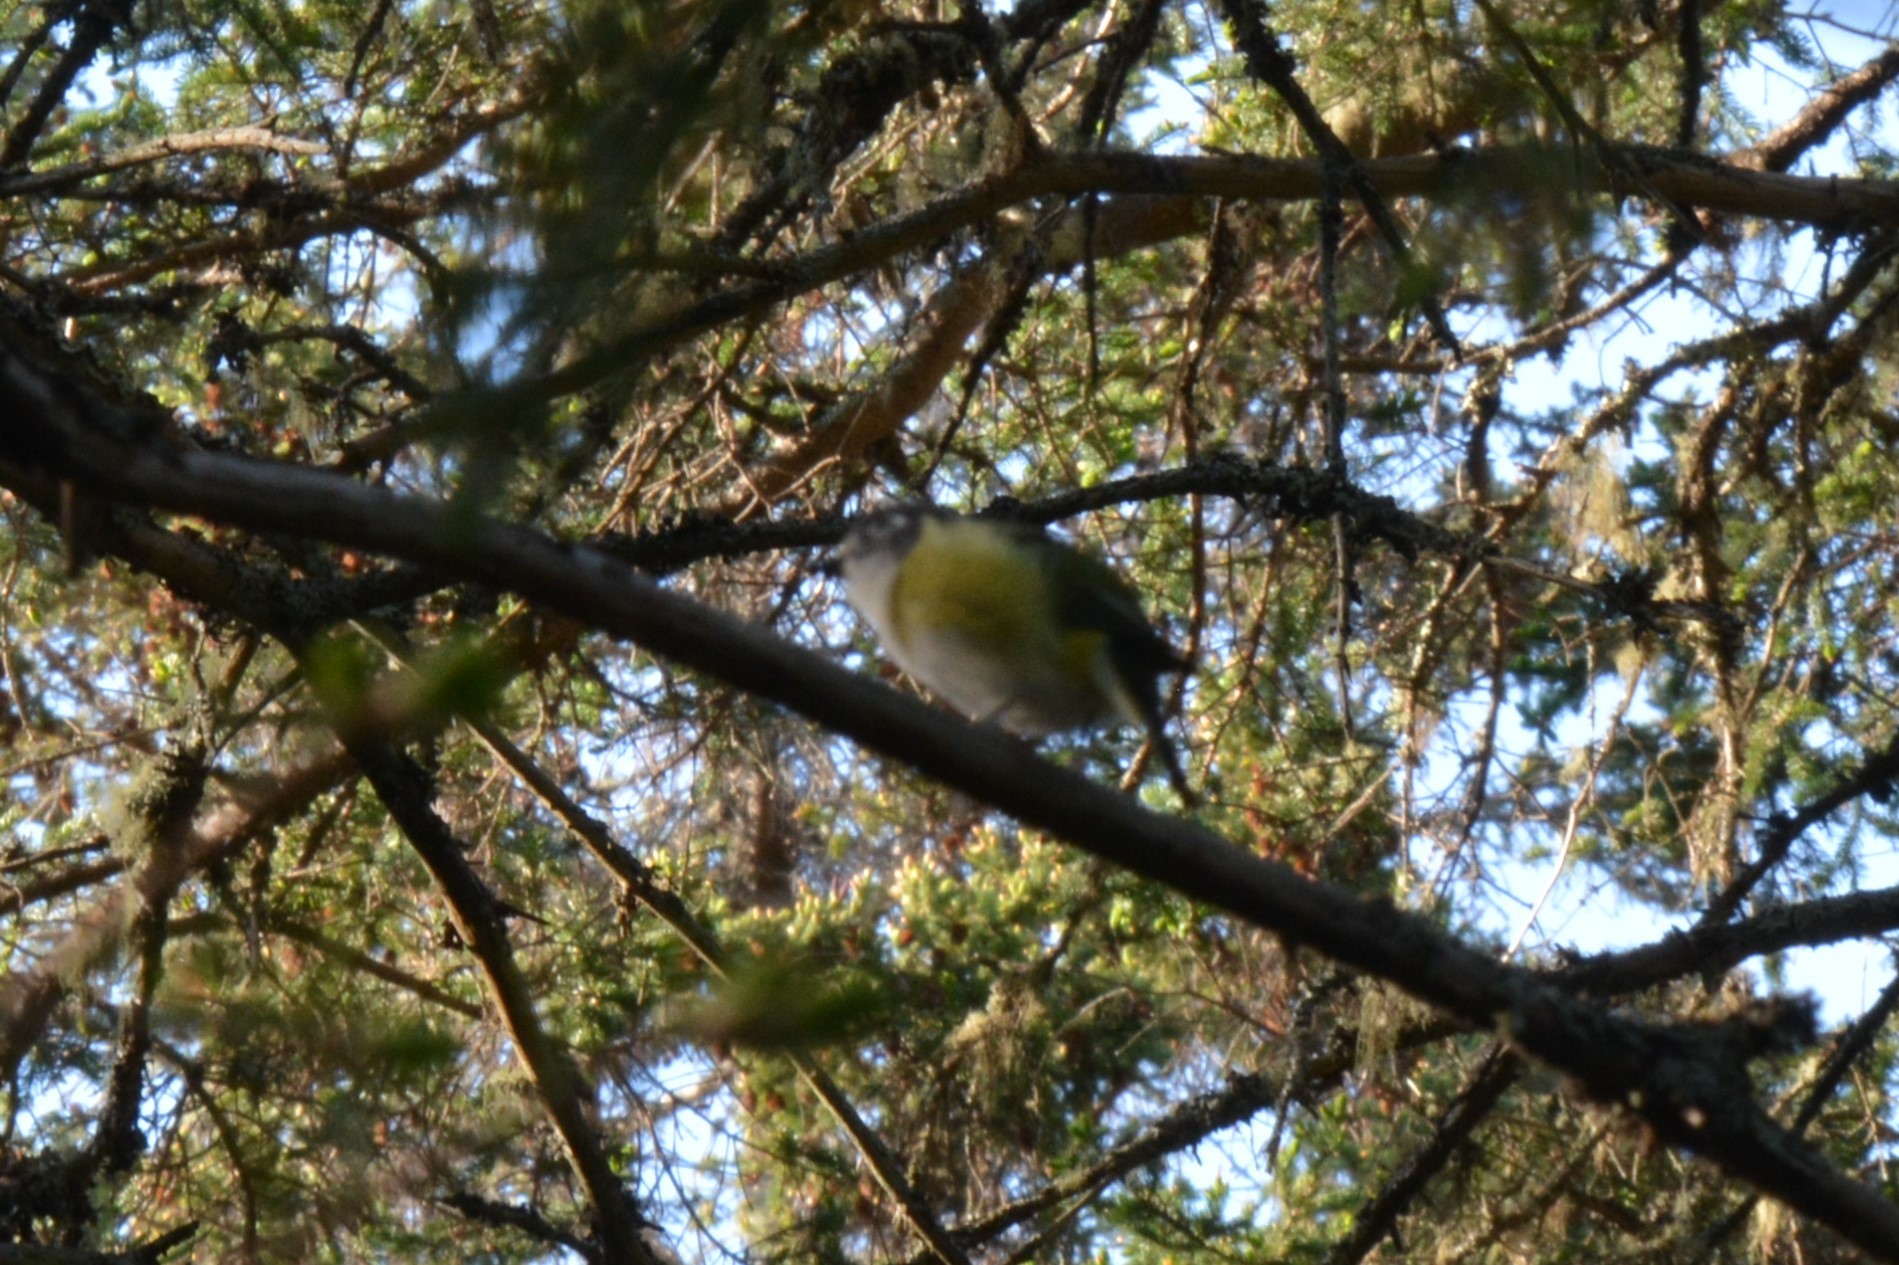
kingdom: Animalia
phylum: Chordata
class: Aves
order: Passeriformes
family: Vireonidae
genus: Vireo
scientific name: Vireo solitarius
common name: Blue-headed vireo
